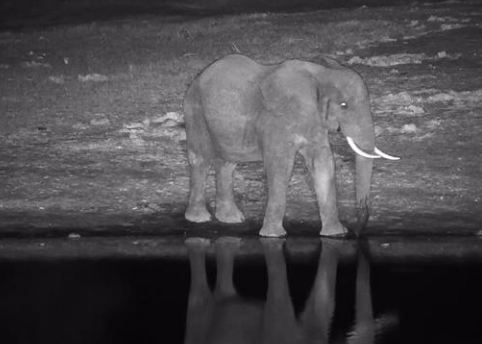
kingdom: Animalia
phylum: Chordata
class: Mammalia
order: Proboscidea
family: Elephantidae
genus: Loxodonta
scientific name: Loxodonta africana
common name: African elephant
